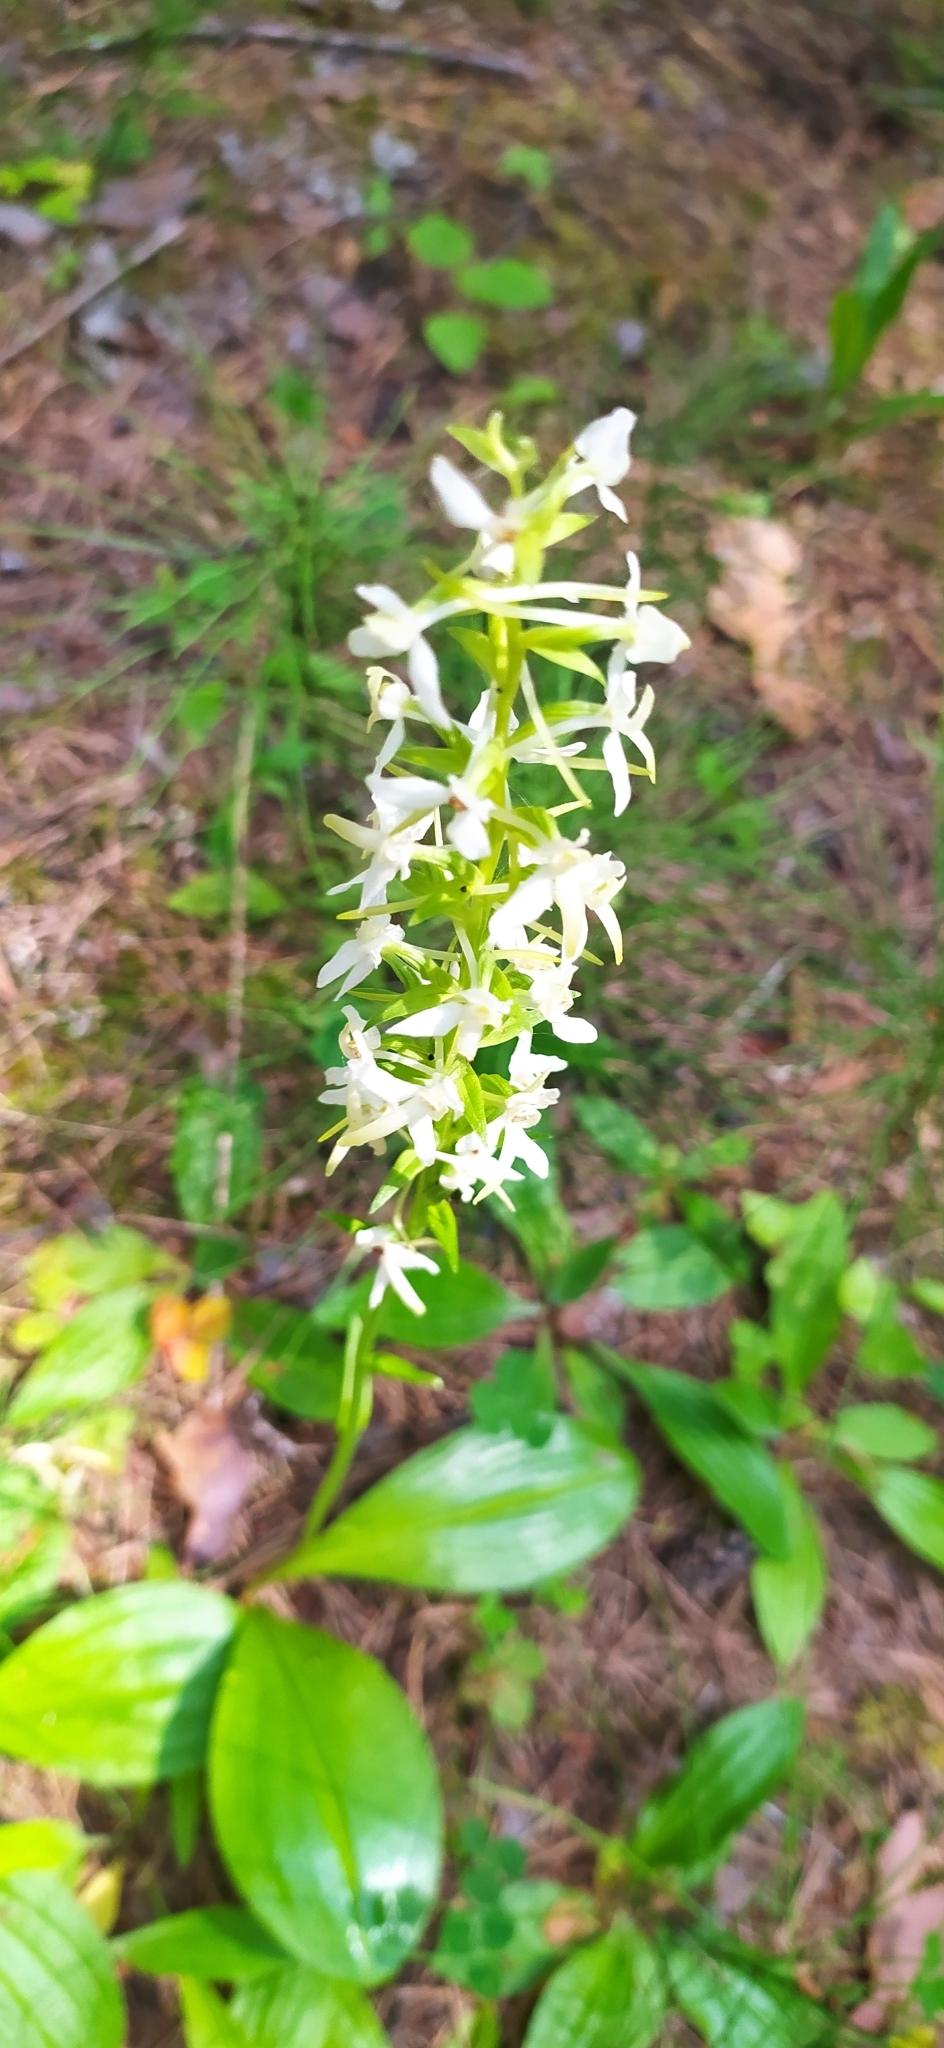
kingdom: Plantae
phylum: Tracheophyta
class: Liliopsida
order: Asparagales
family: Orchidaceae
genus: Platanthera
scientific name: Platanthera bifolia
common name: Lesser butterfly-orchid
